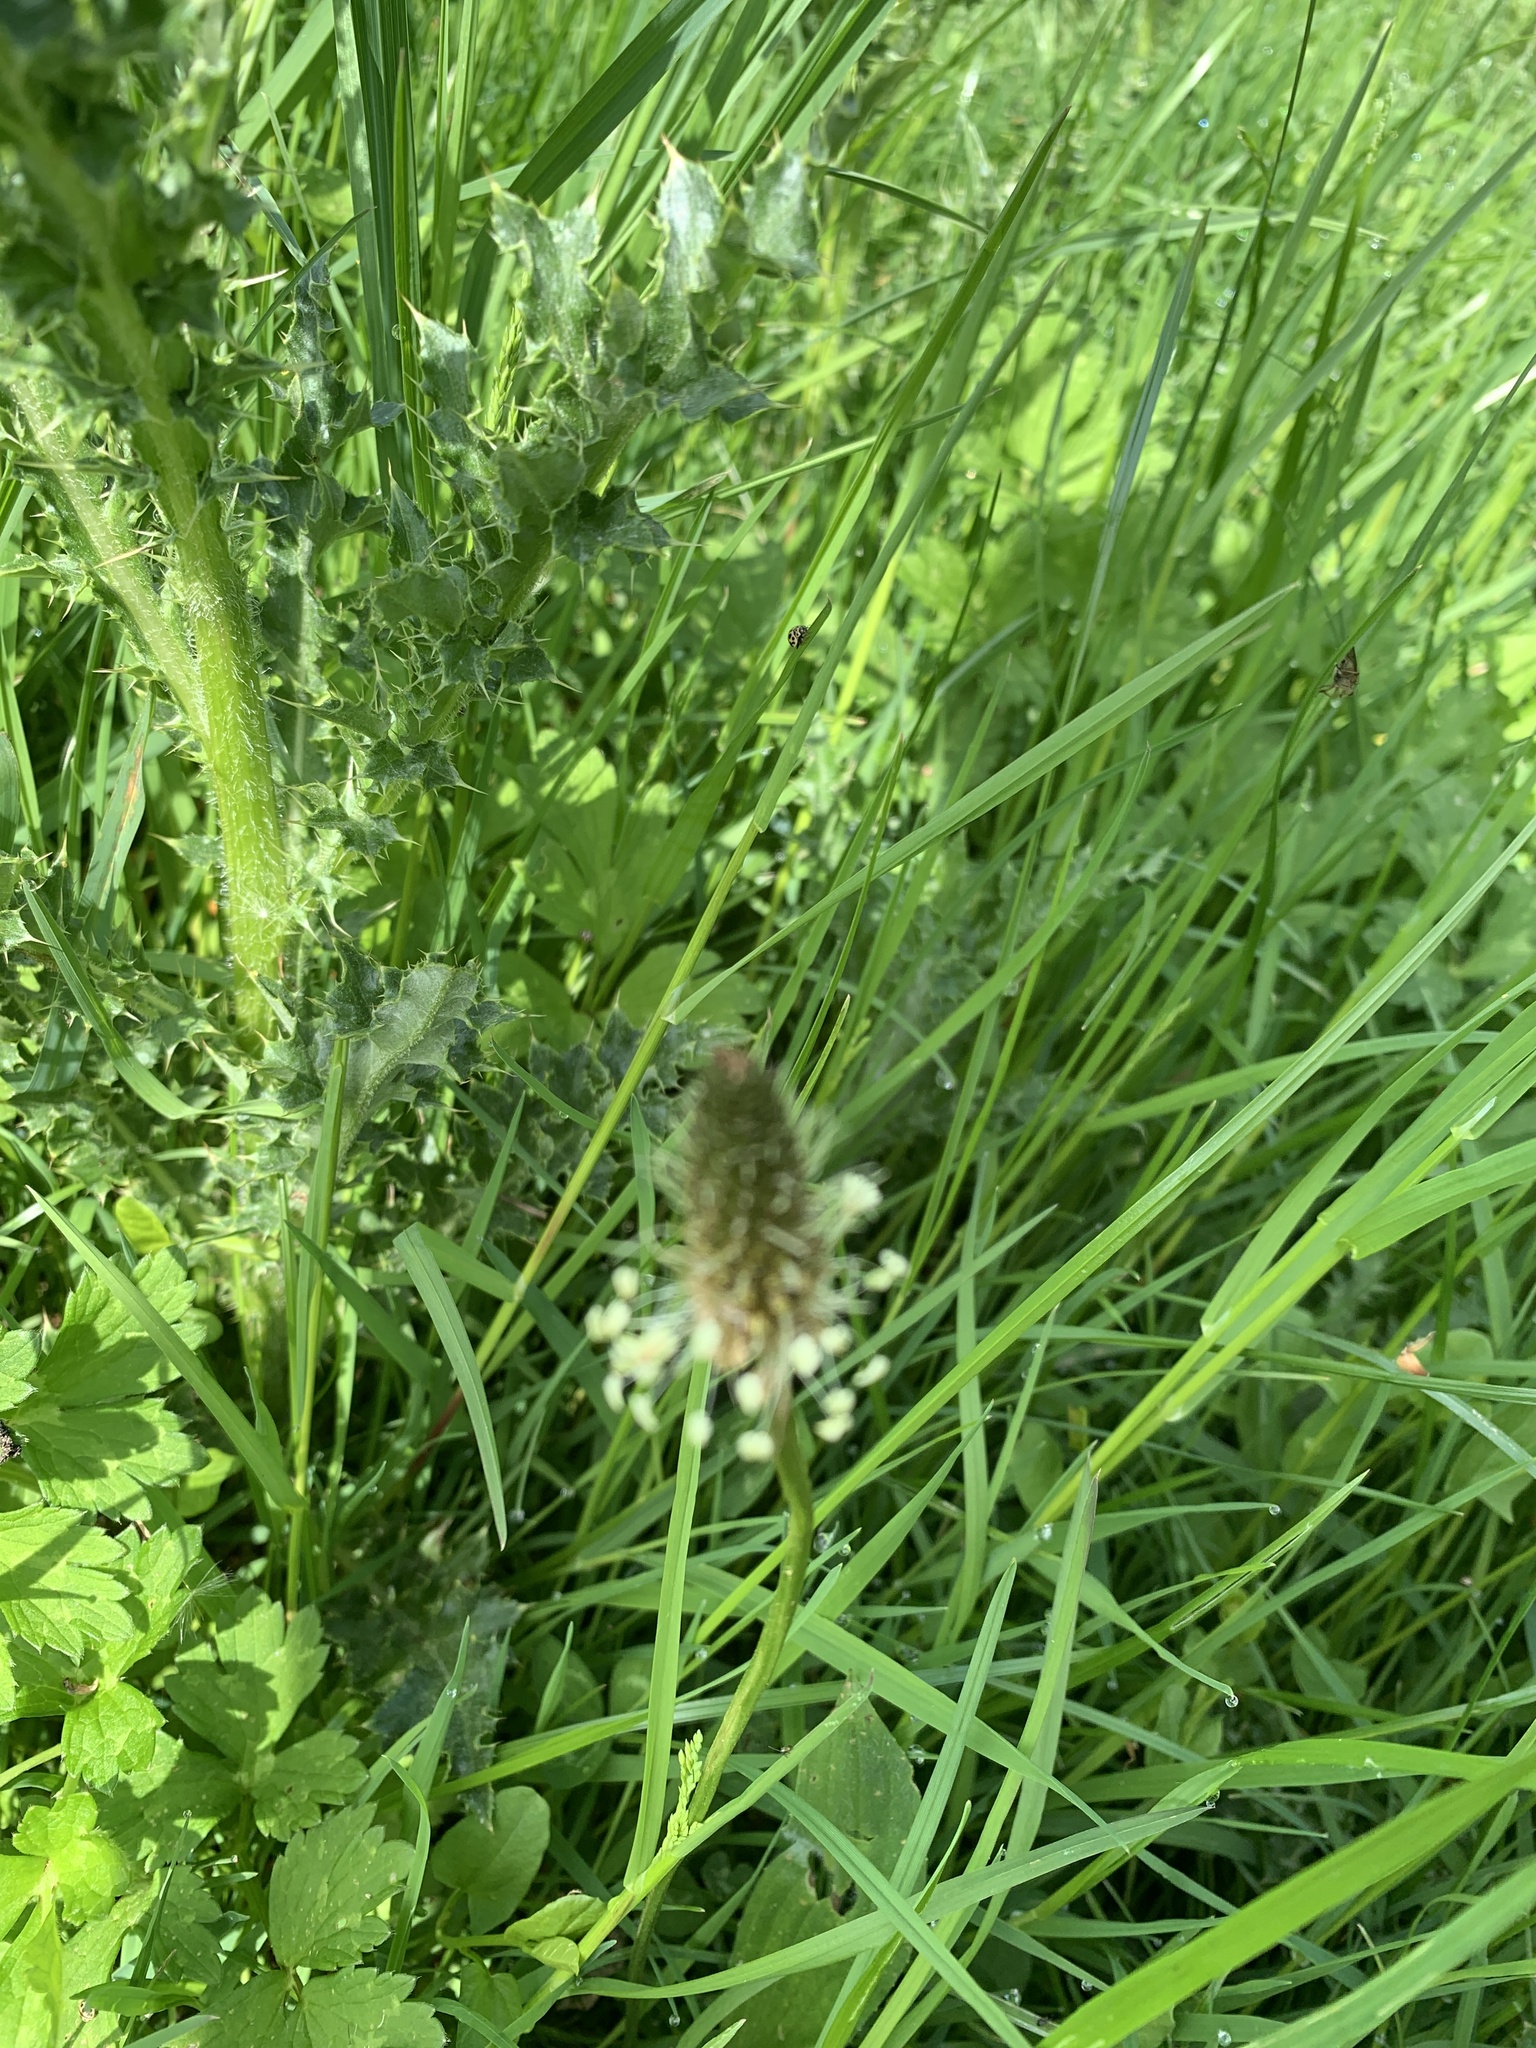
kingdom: Plantae
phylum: Tracheophyta
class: Magnoliopsida
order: Lamiales
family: Plantaginaceae
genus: Plantago
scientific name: Plantago lanceolata
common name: Ribwort plantain
